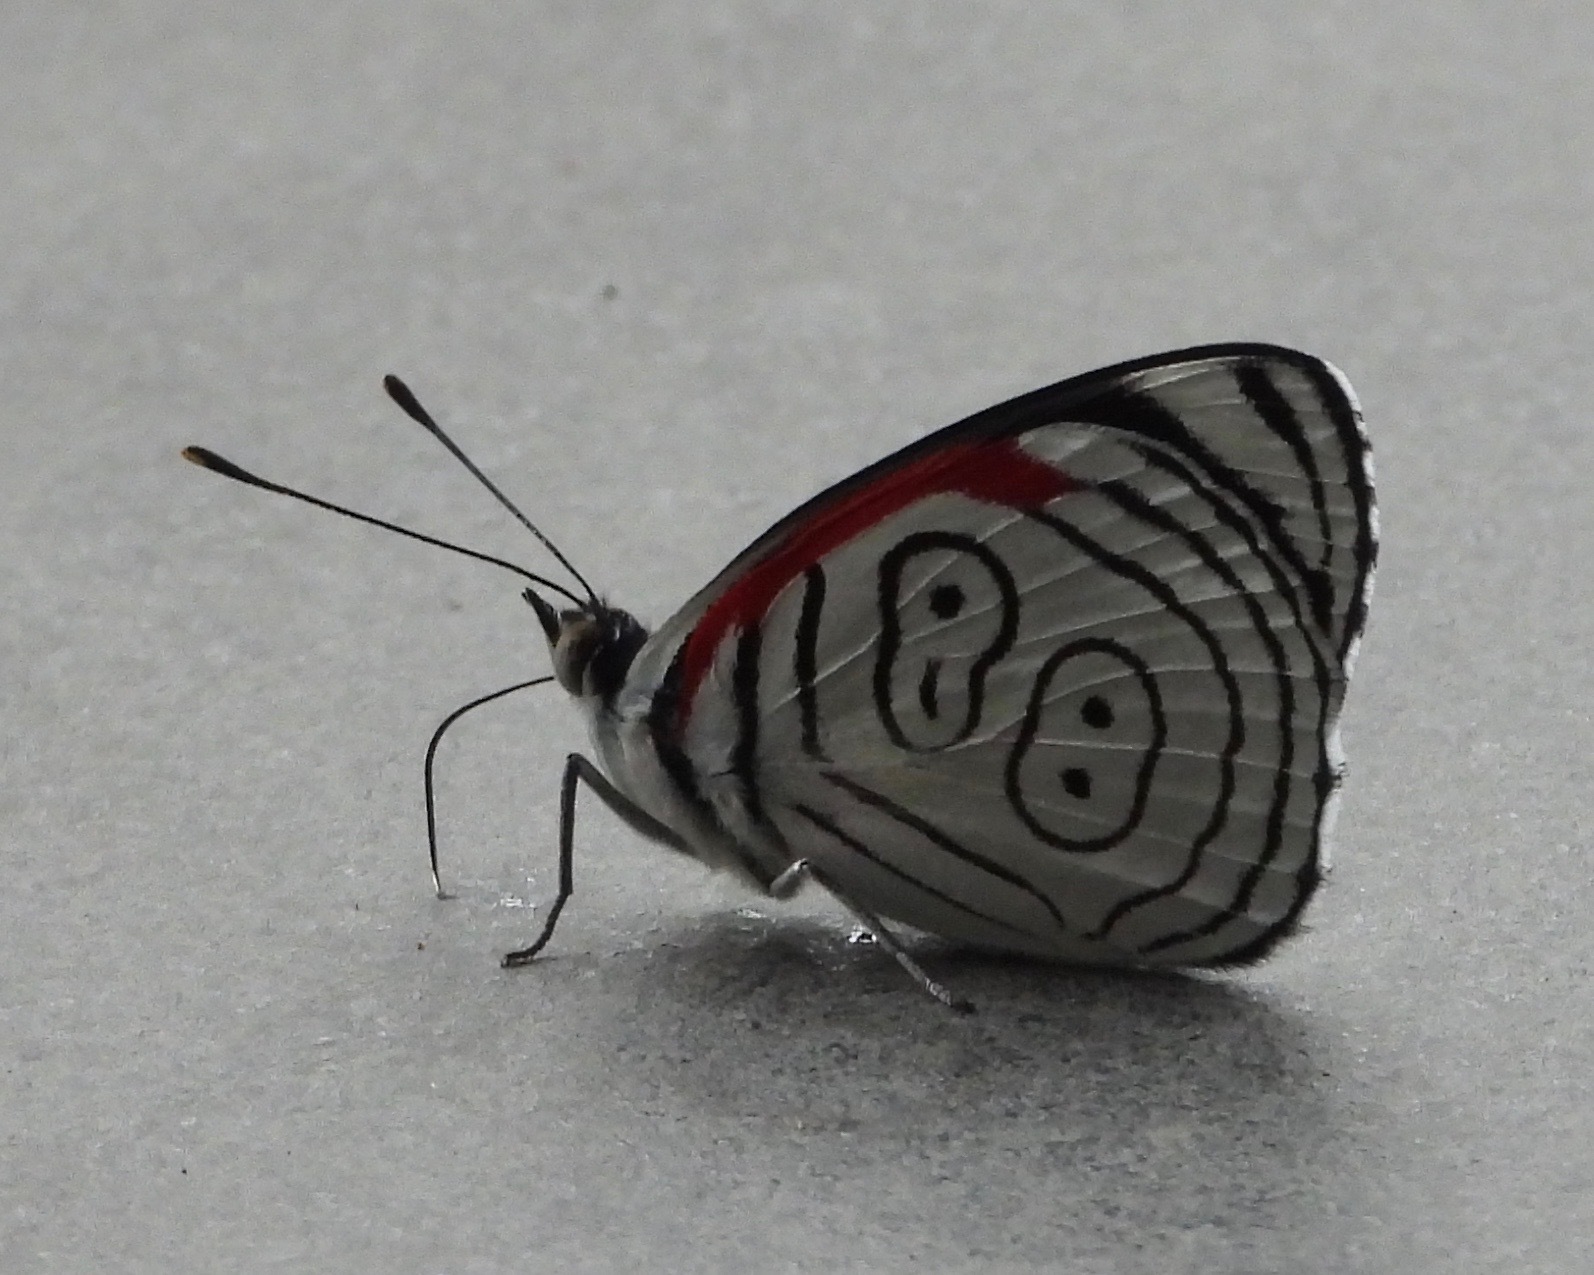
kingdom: Animalia
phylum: Arthropoda
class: Insecta
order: Lepidoptera
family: Nymphalidae
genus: Diaethria
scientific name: Diaethria anna
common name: Anna’s eighty-eight
